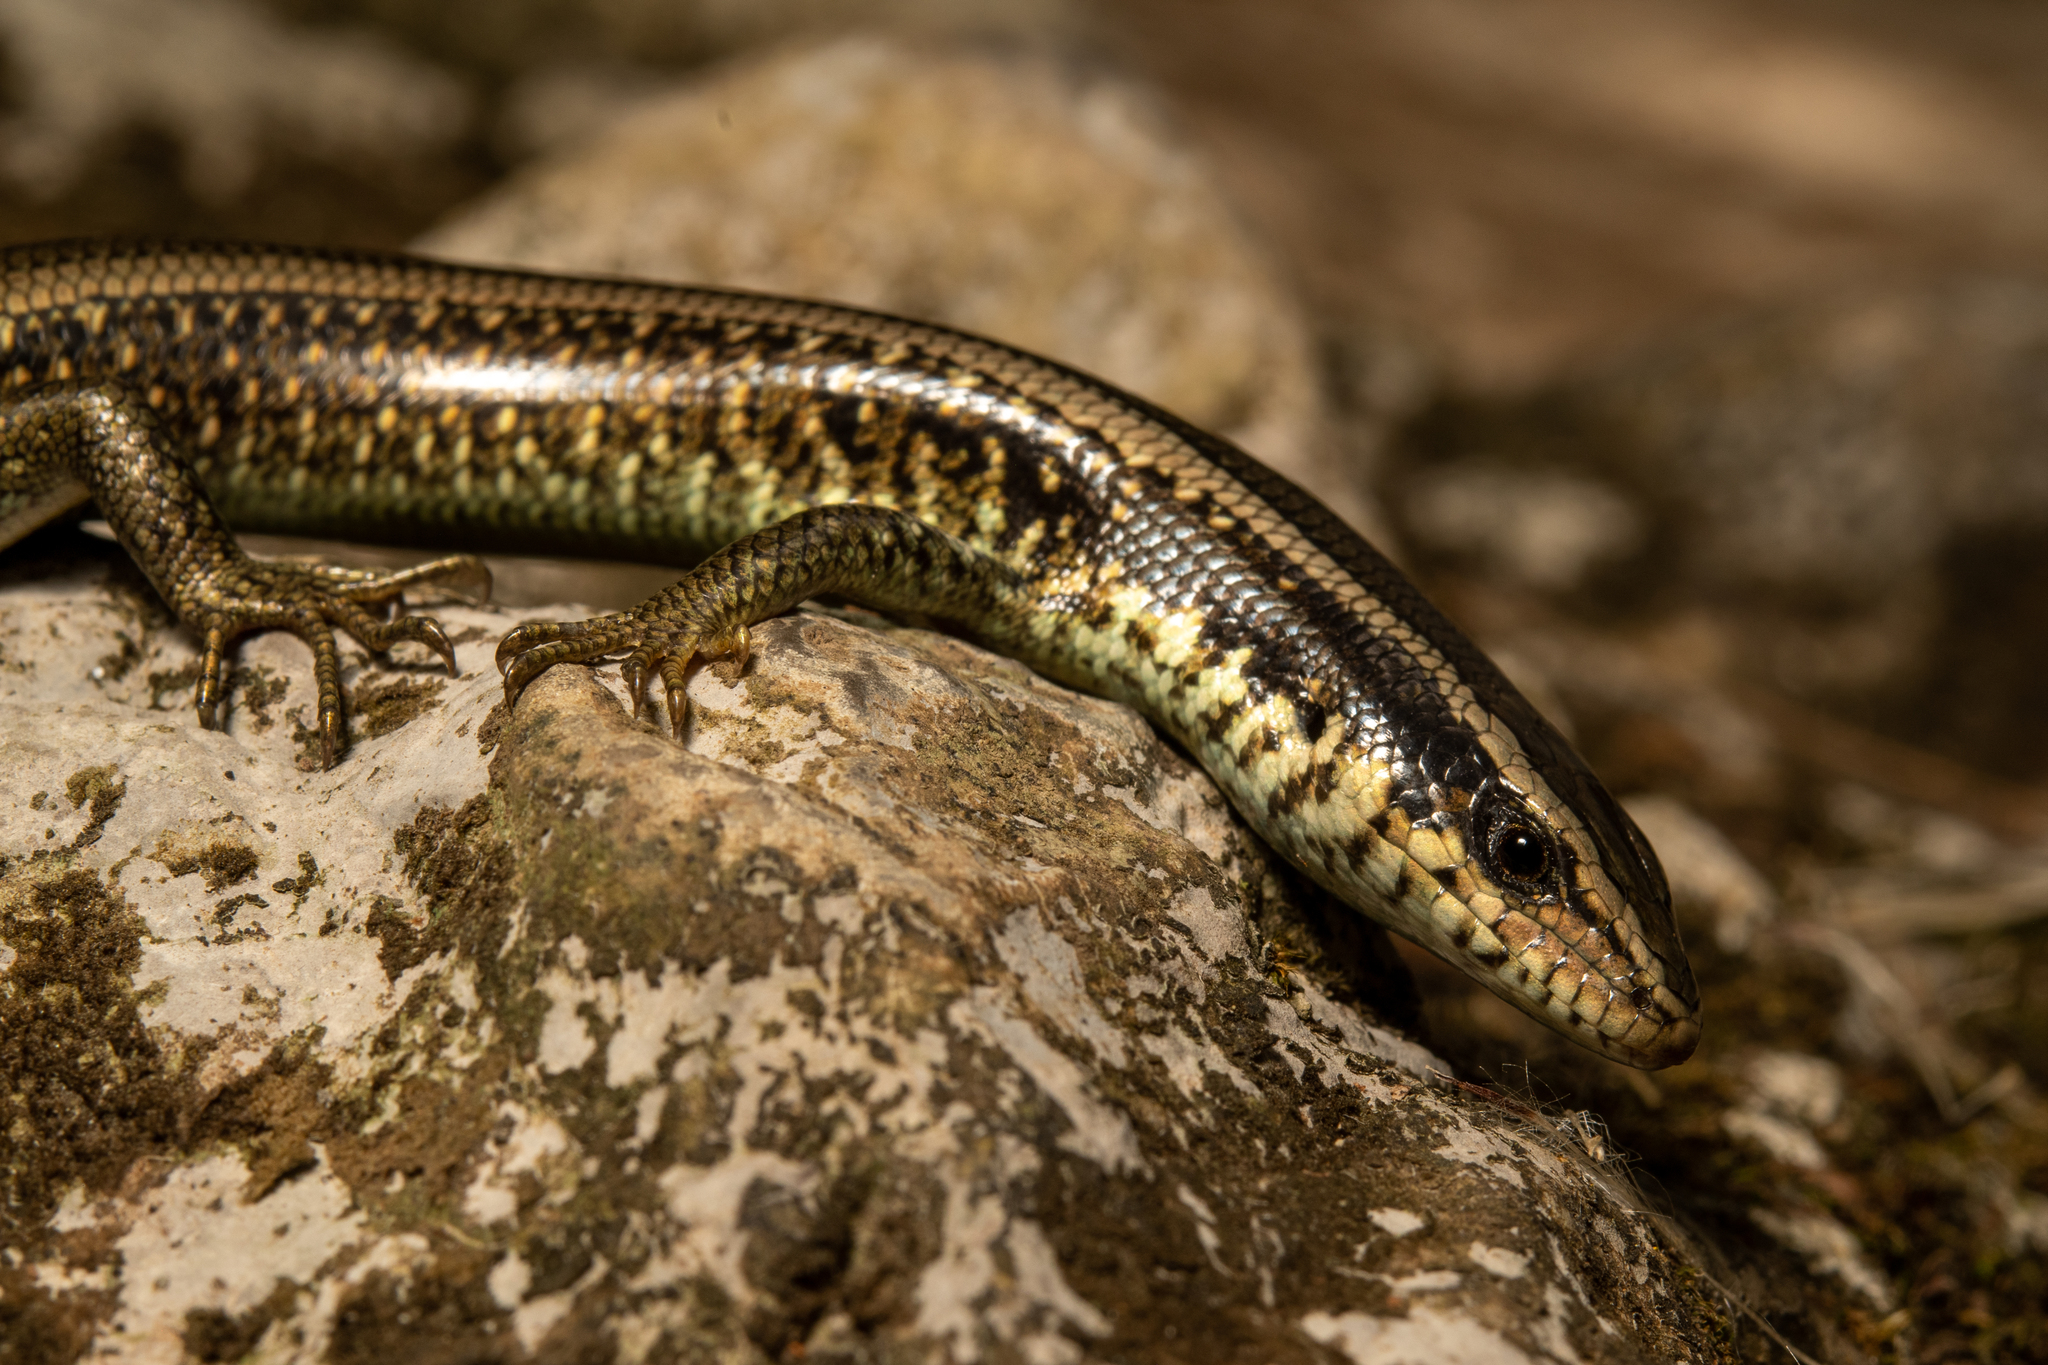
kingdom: Animalia
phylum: Chordata
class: Squamata
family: Scincidae
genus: Marisora
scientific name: Marisora roatanae
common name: Honduran skink
